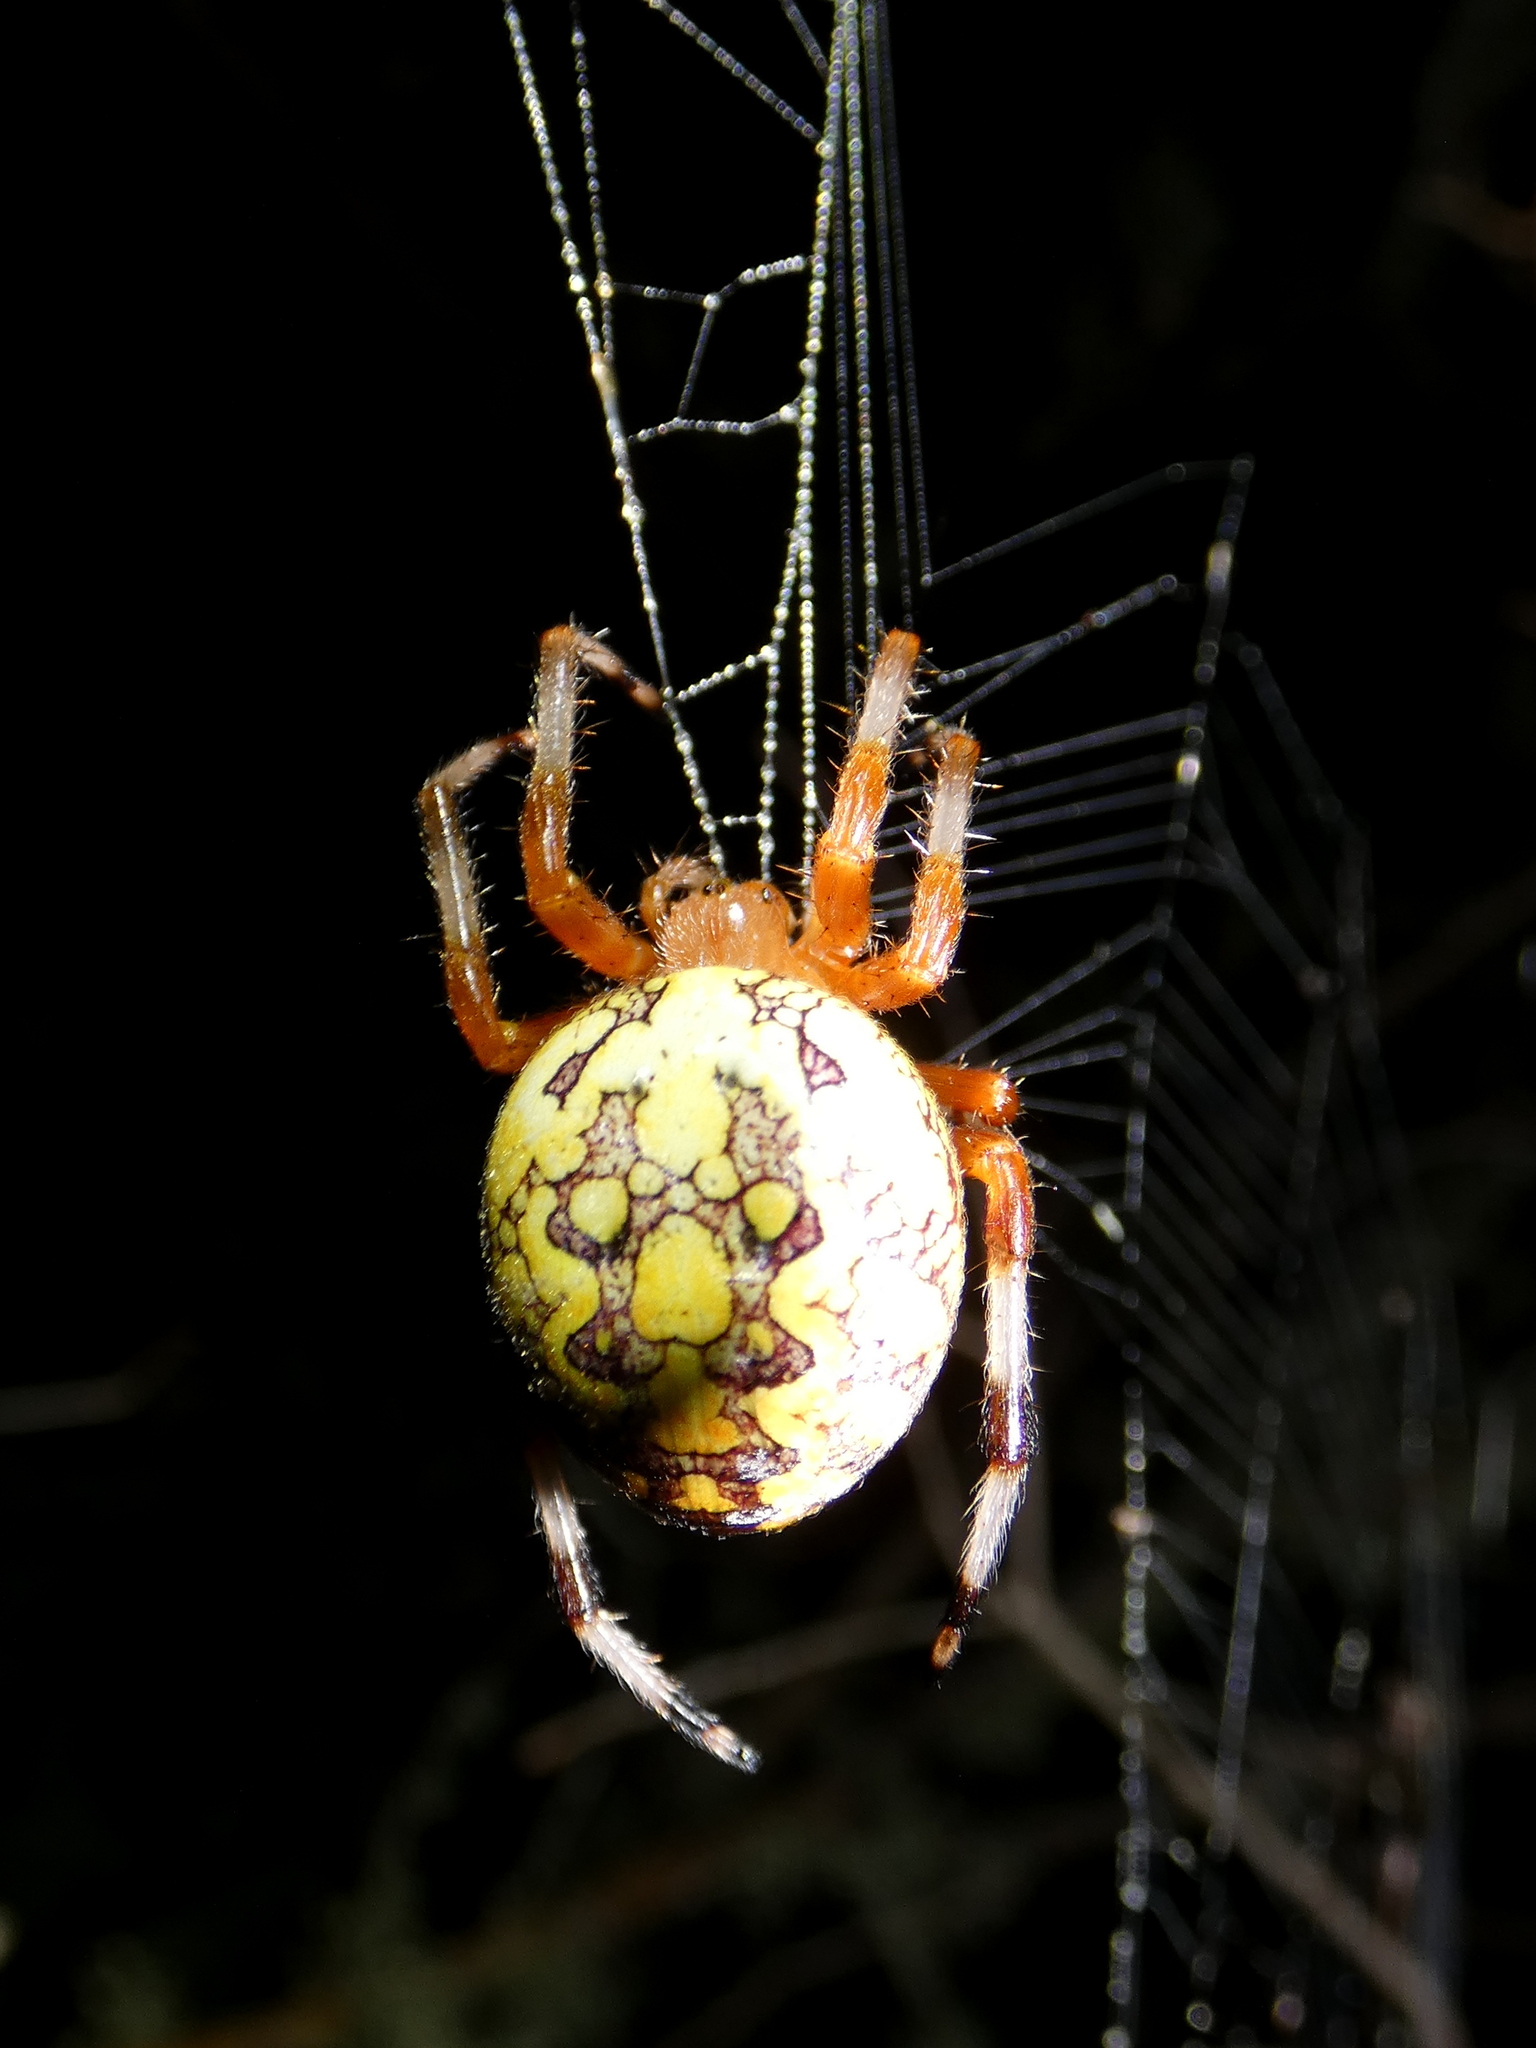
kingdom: Animalia
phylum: Arthropoda
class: Arachnida
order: Araneae
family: Araneidae
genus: Araneus
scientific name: Araneus marmoreus
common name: Marbled orbweaver
